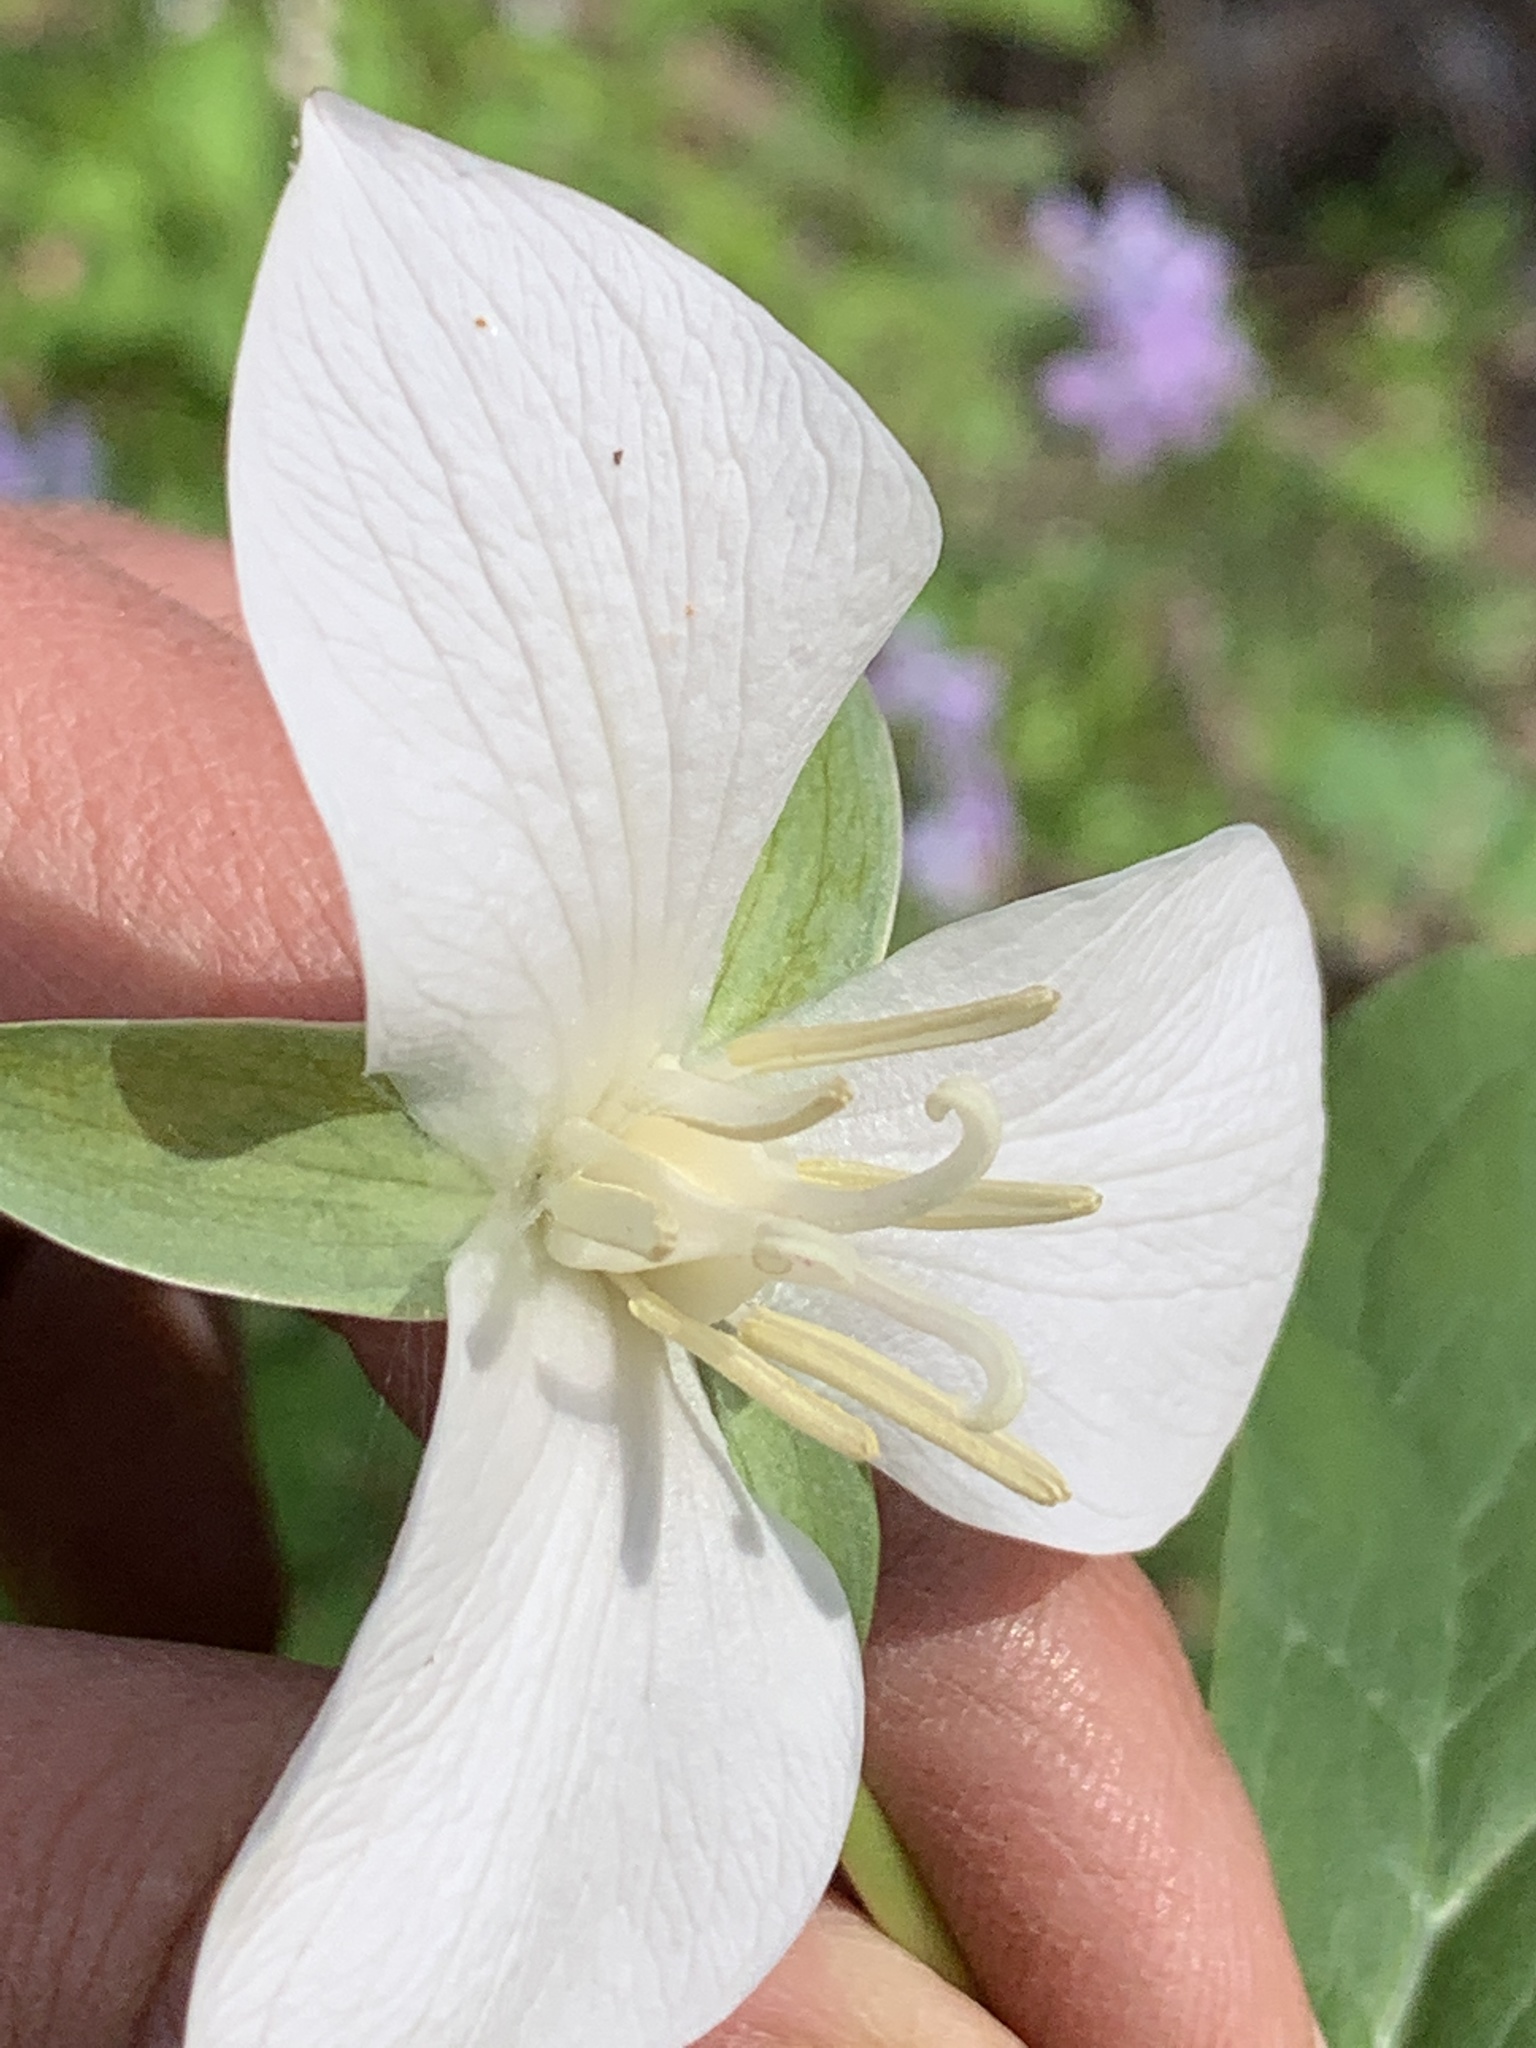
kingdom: Plantae
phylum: Tracheophyta
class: Liliopsida
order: Liliales
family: Melanthiaceae
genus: Trillium
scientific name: Trillium flexipes
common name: Drooping trillium
